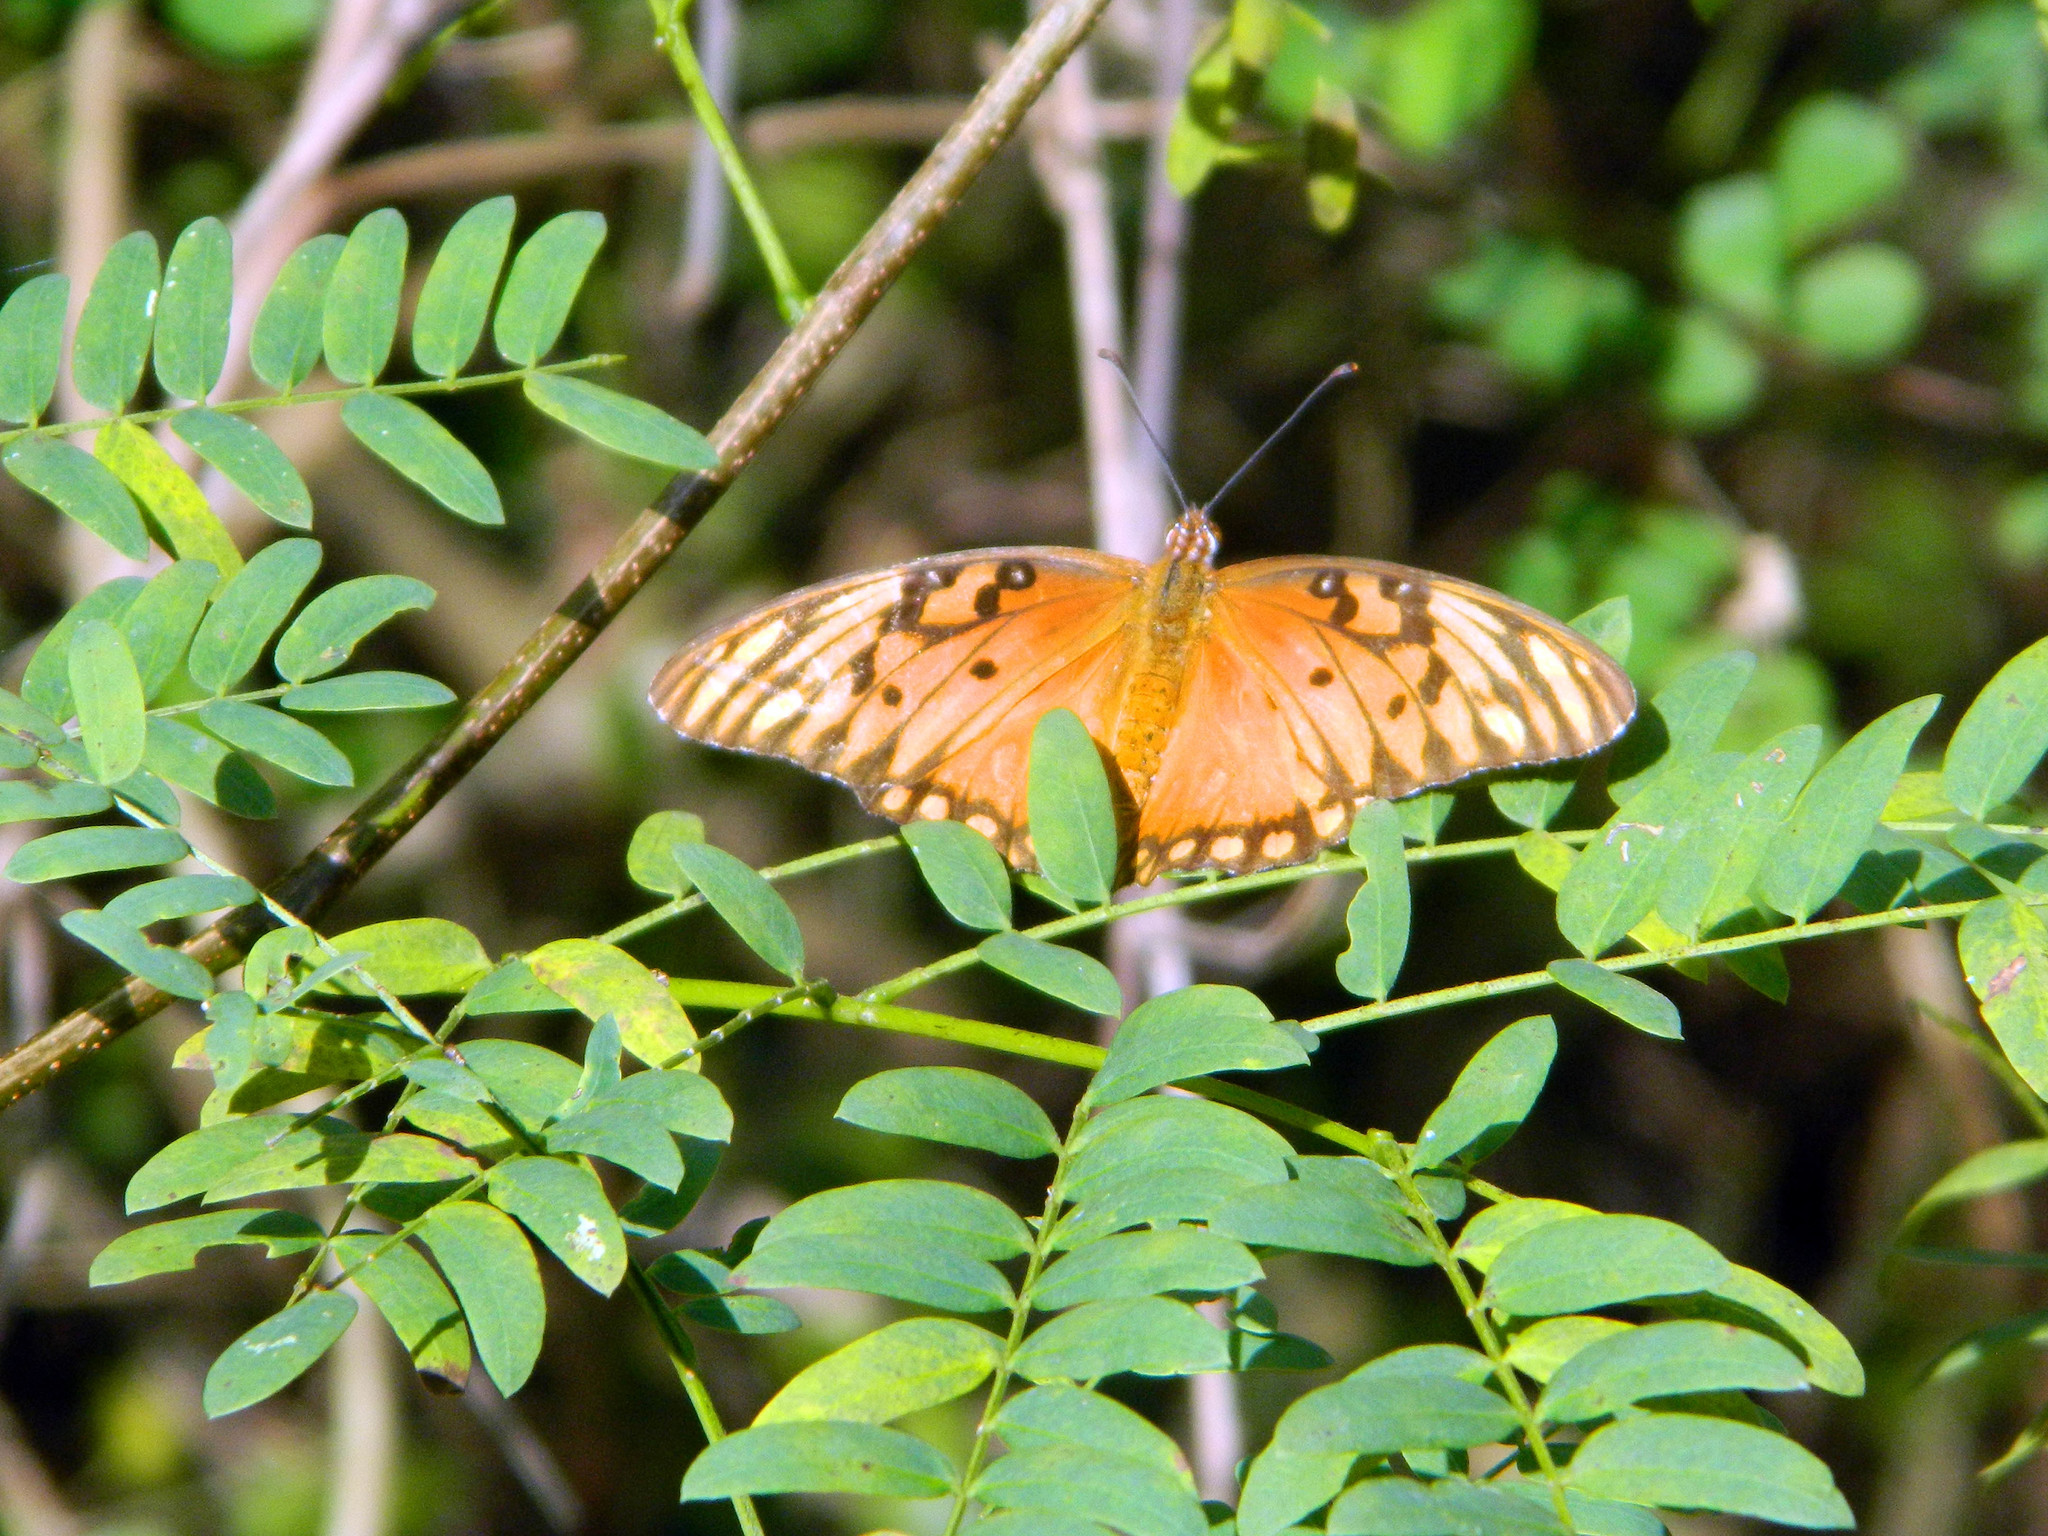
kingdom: Animalia
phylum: Arthropoda
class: Insecta
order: Lepidoptera
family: Nymphalidae
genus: Dione
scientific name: Dione vanillae
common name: Gulf fritillary
